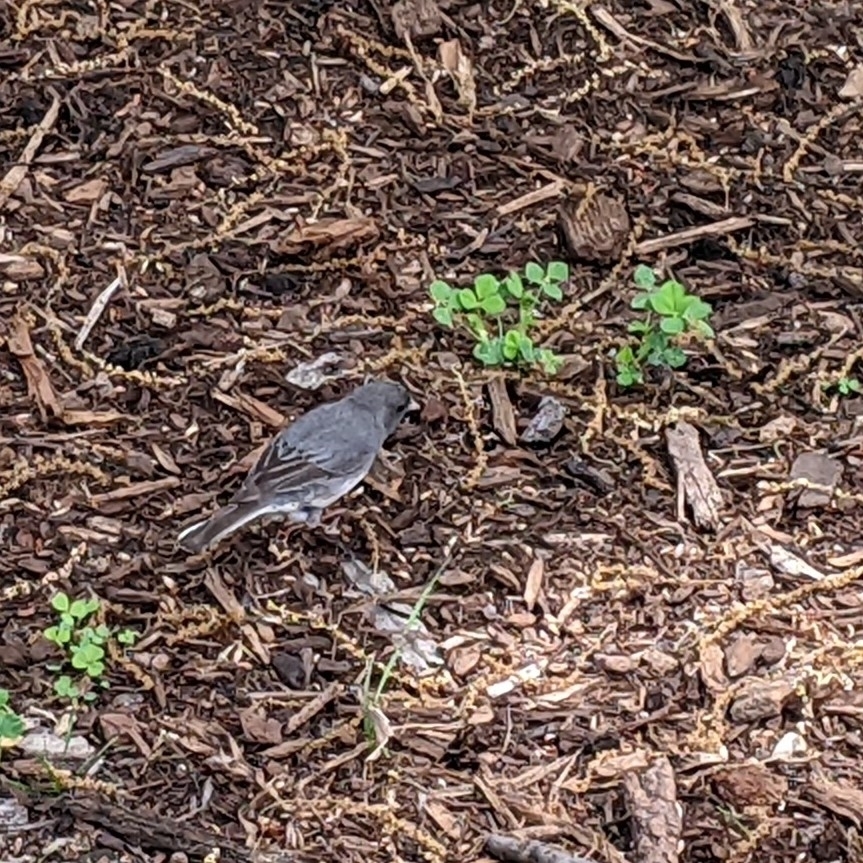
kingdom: Animalia
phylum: Chordata
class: Aves
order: Passeriformes
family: Passerellidae
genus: Junco
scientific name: Junco hyemalis
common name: Dark-eyed junco
